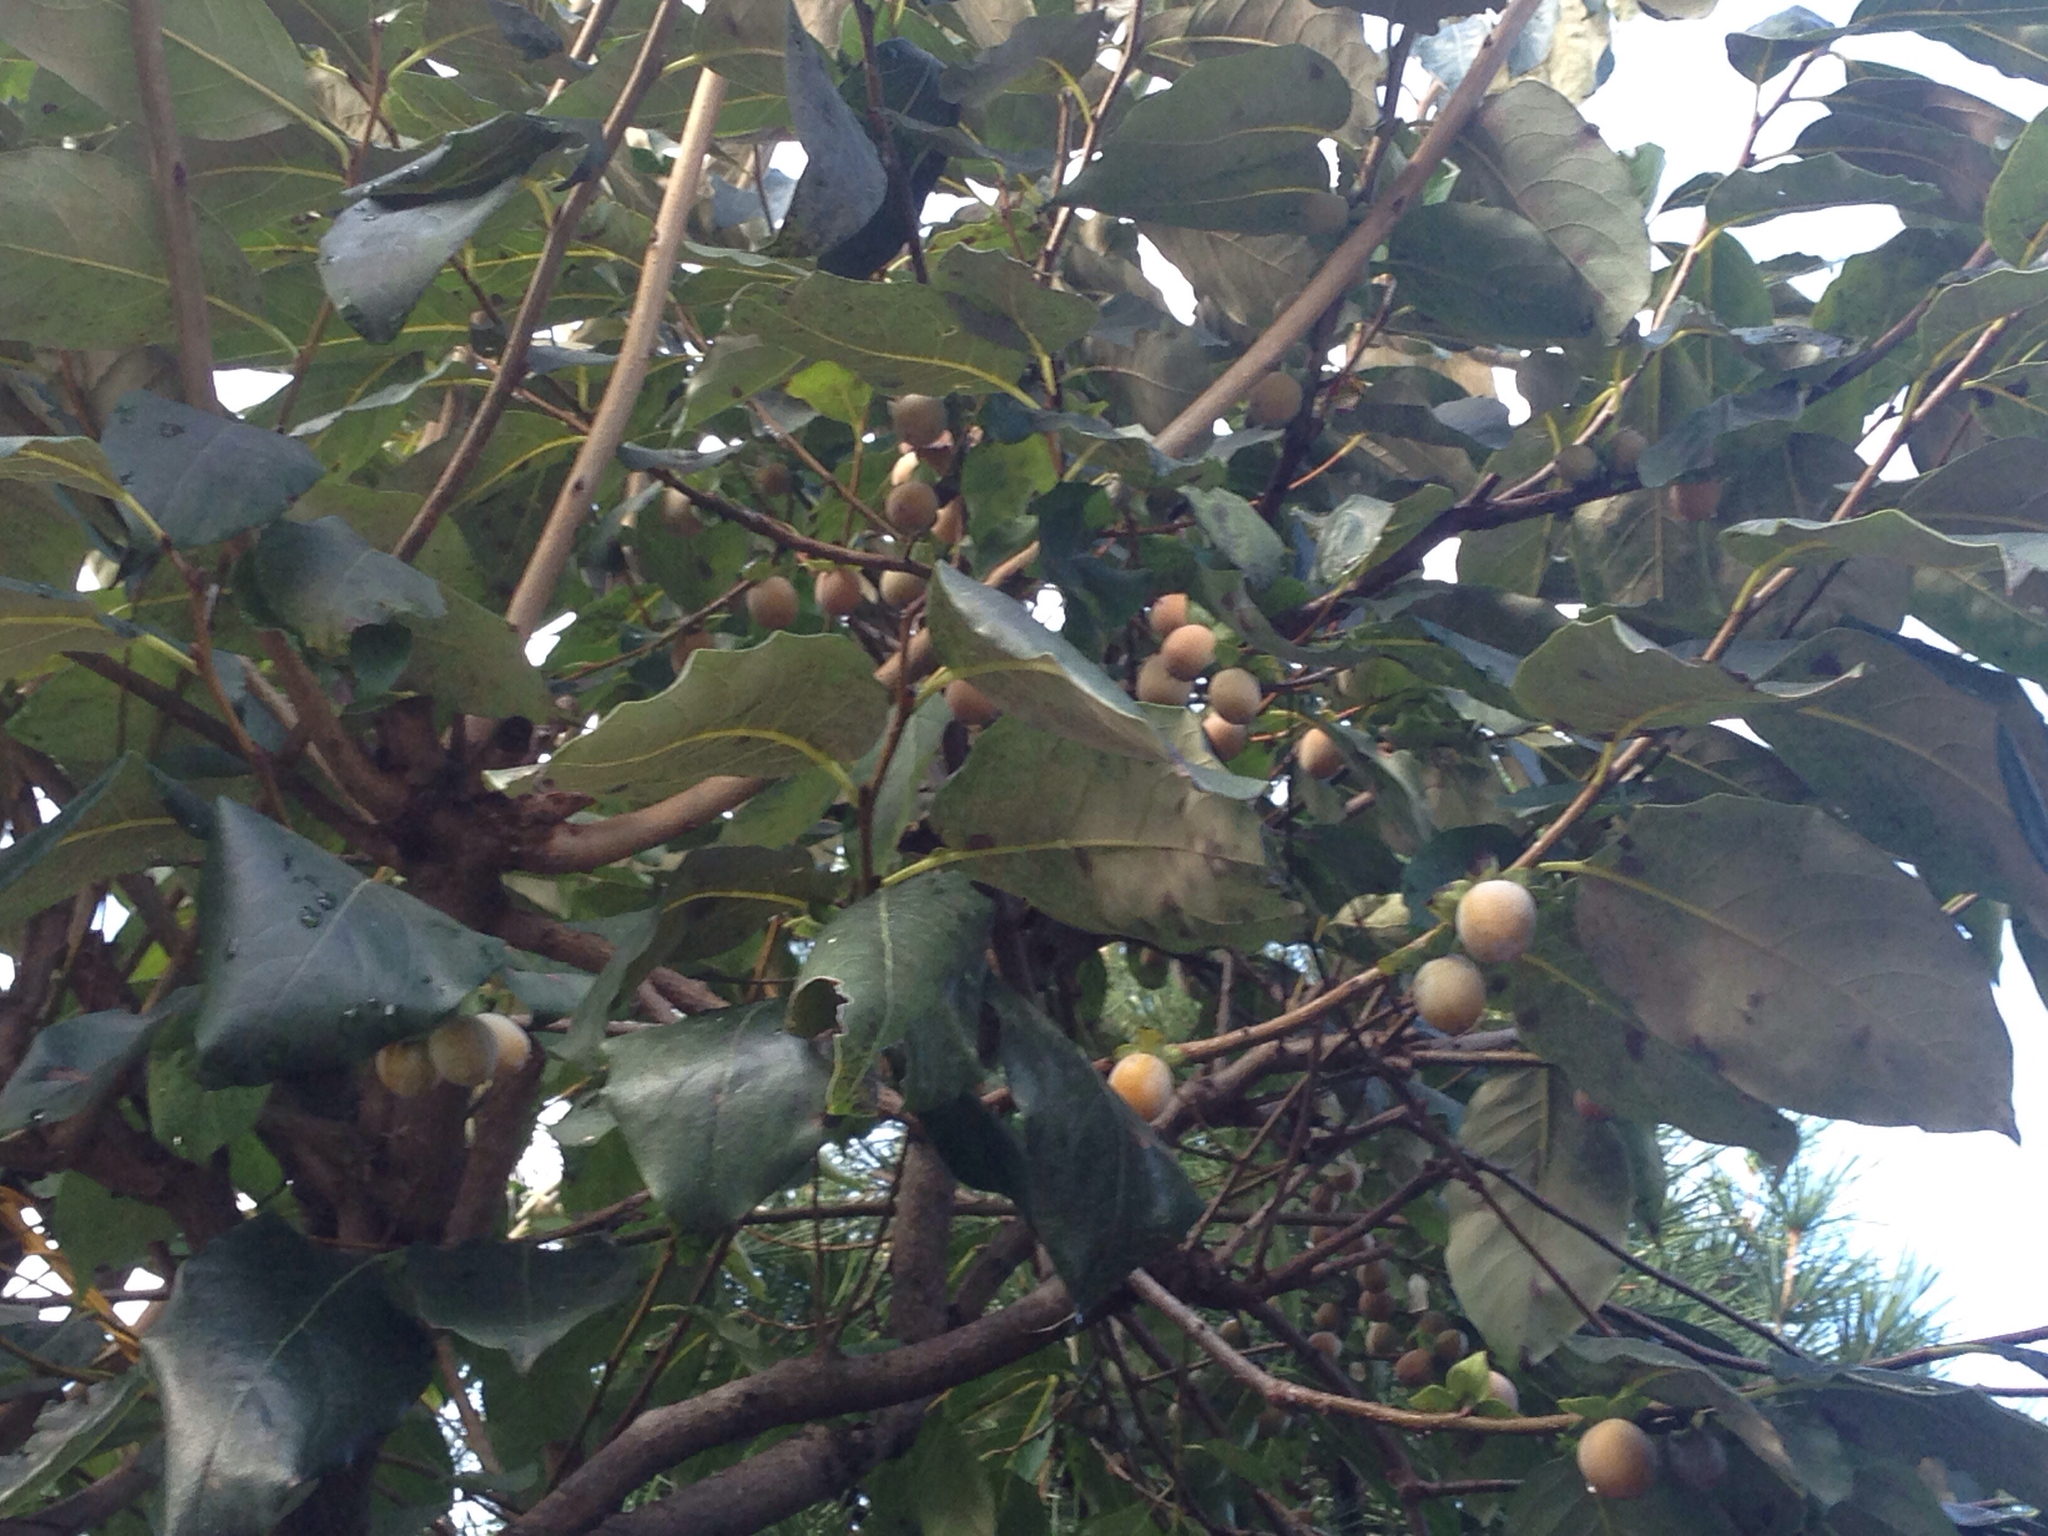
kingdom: Plantae
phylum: Tracheophyta
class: Magnoliopsida
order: Ericales
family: Ebenaceae
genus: Diospyros
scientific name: Diospyros lotus
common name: Date-plum
